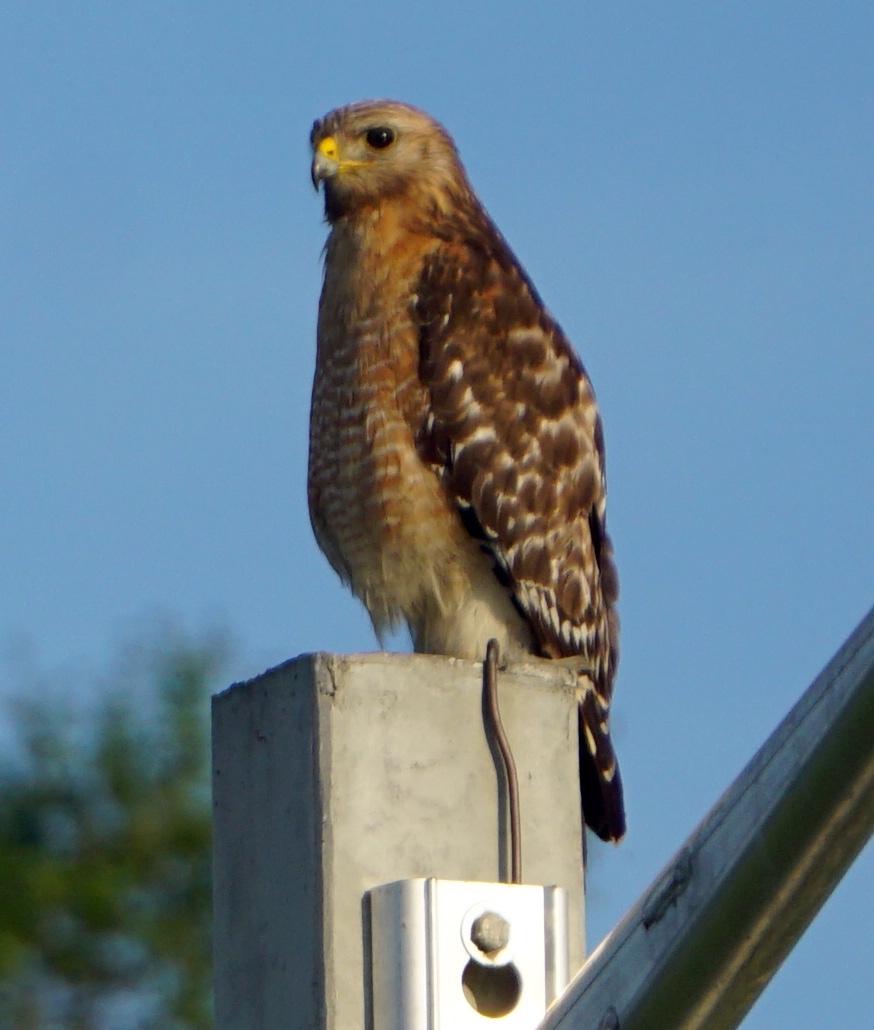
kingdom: Animalia
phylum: Chordata
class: Aves
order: Accipitriformes
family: Accipitridae
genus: Buteo
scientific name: Buteo lineatus
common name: Red-shouldered hawk
